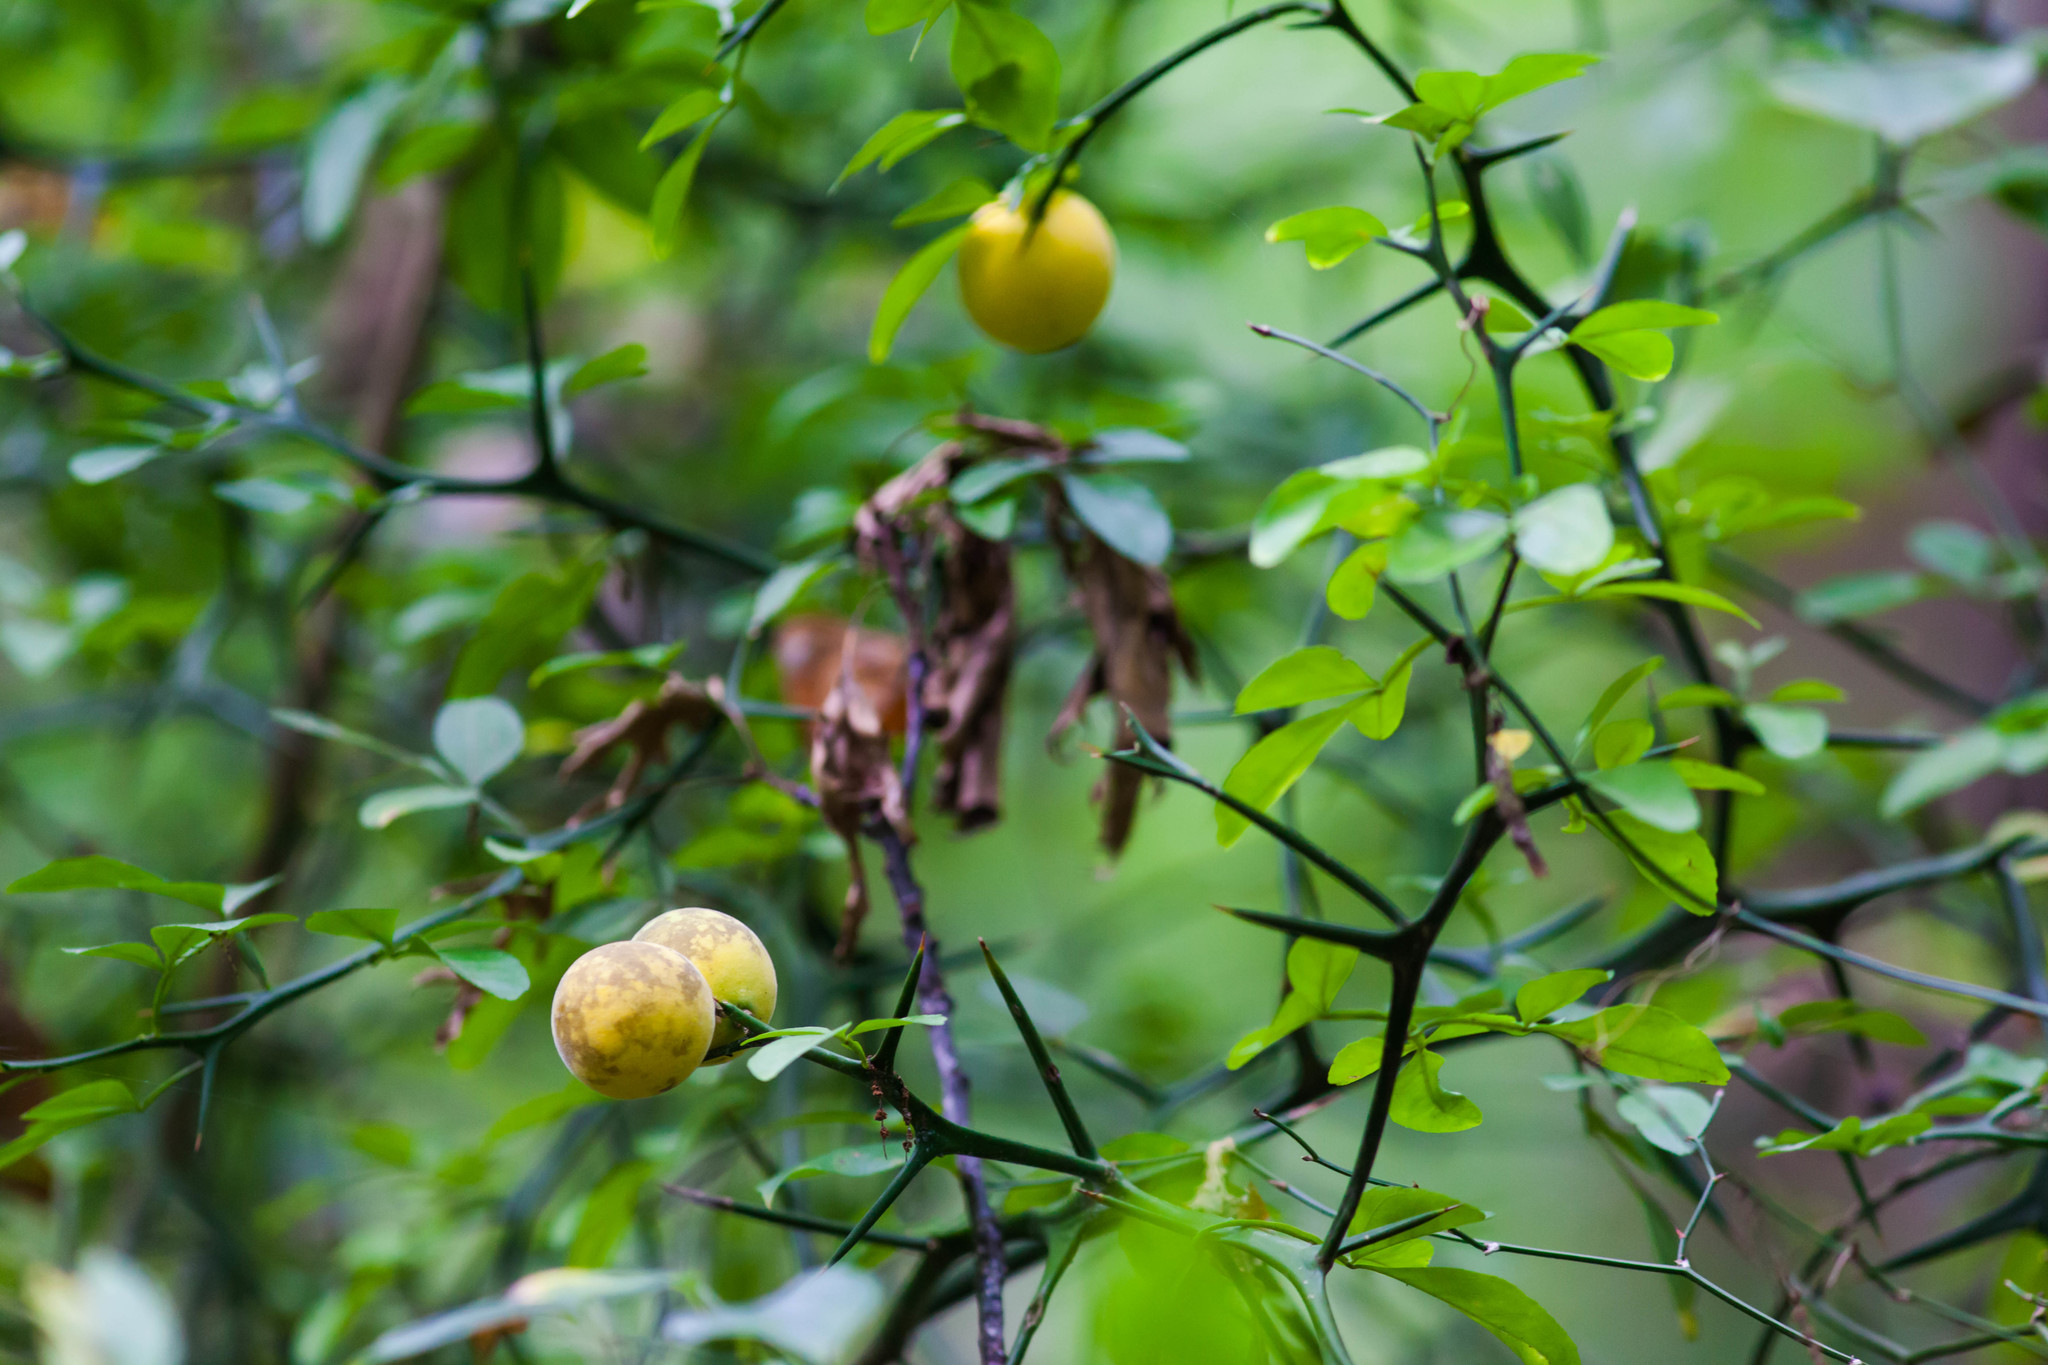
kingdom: Plantae
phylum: Tracheophyta
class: Magnoliopsida
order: Sapindales
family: Rutaceae
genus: Citrus
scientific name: Citrus trifoliata
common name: Japanese bitter-orange
